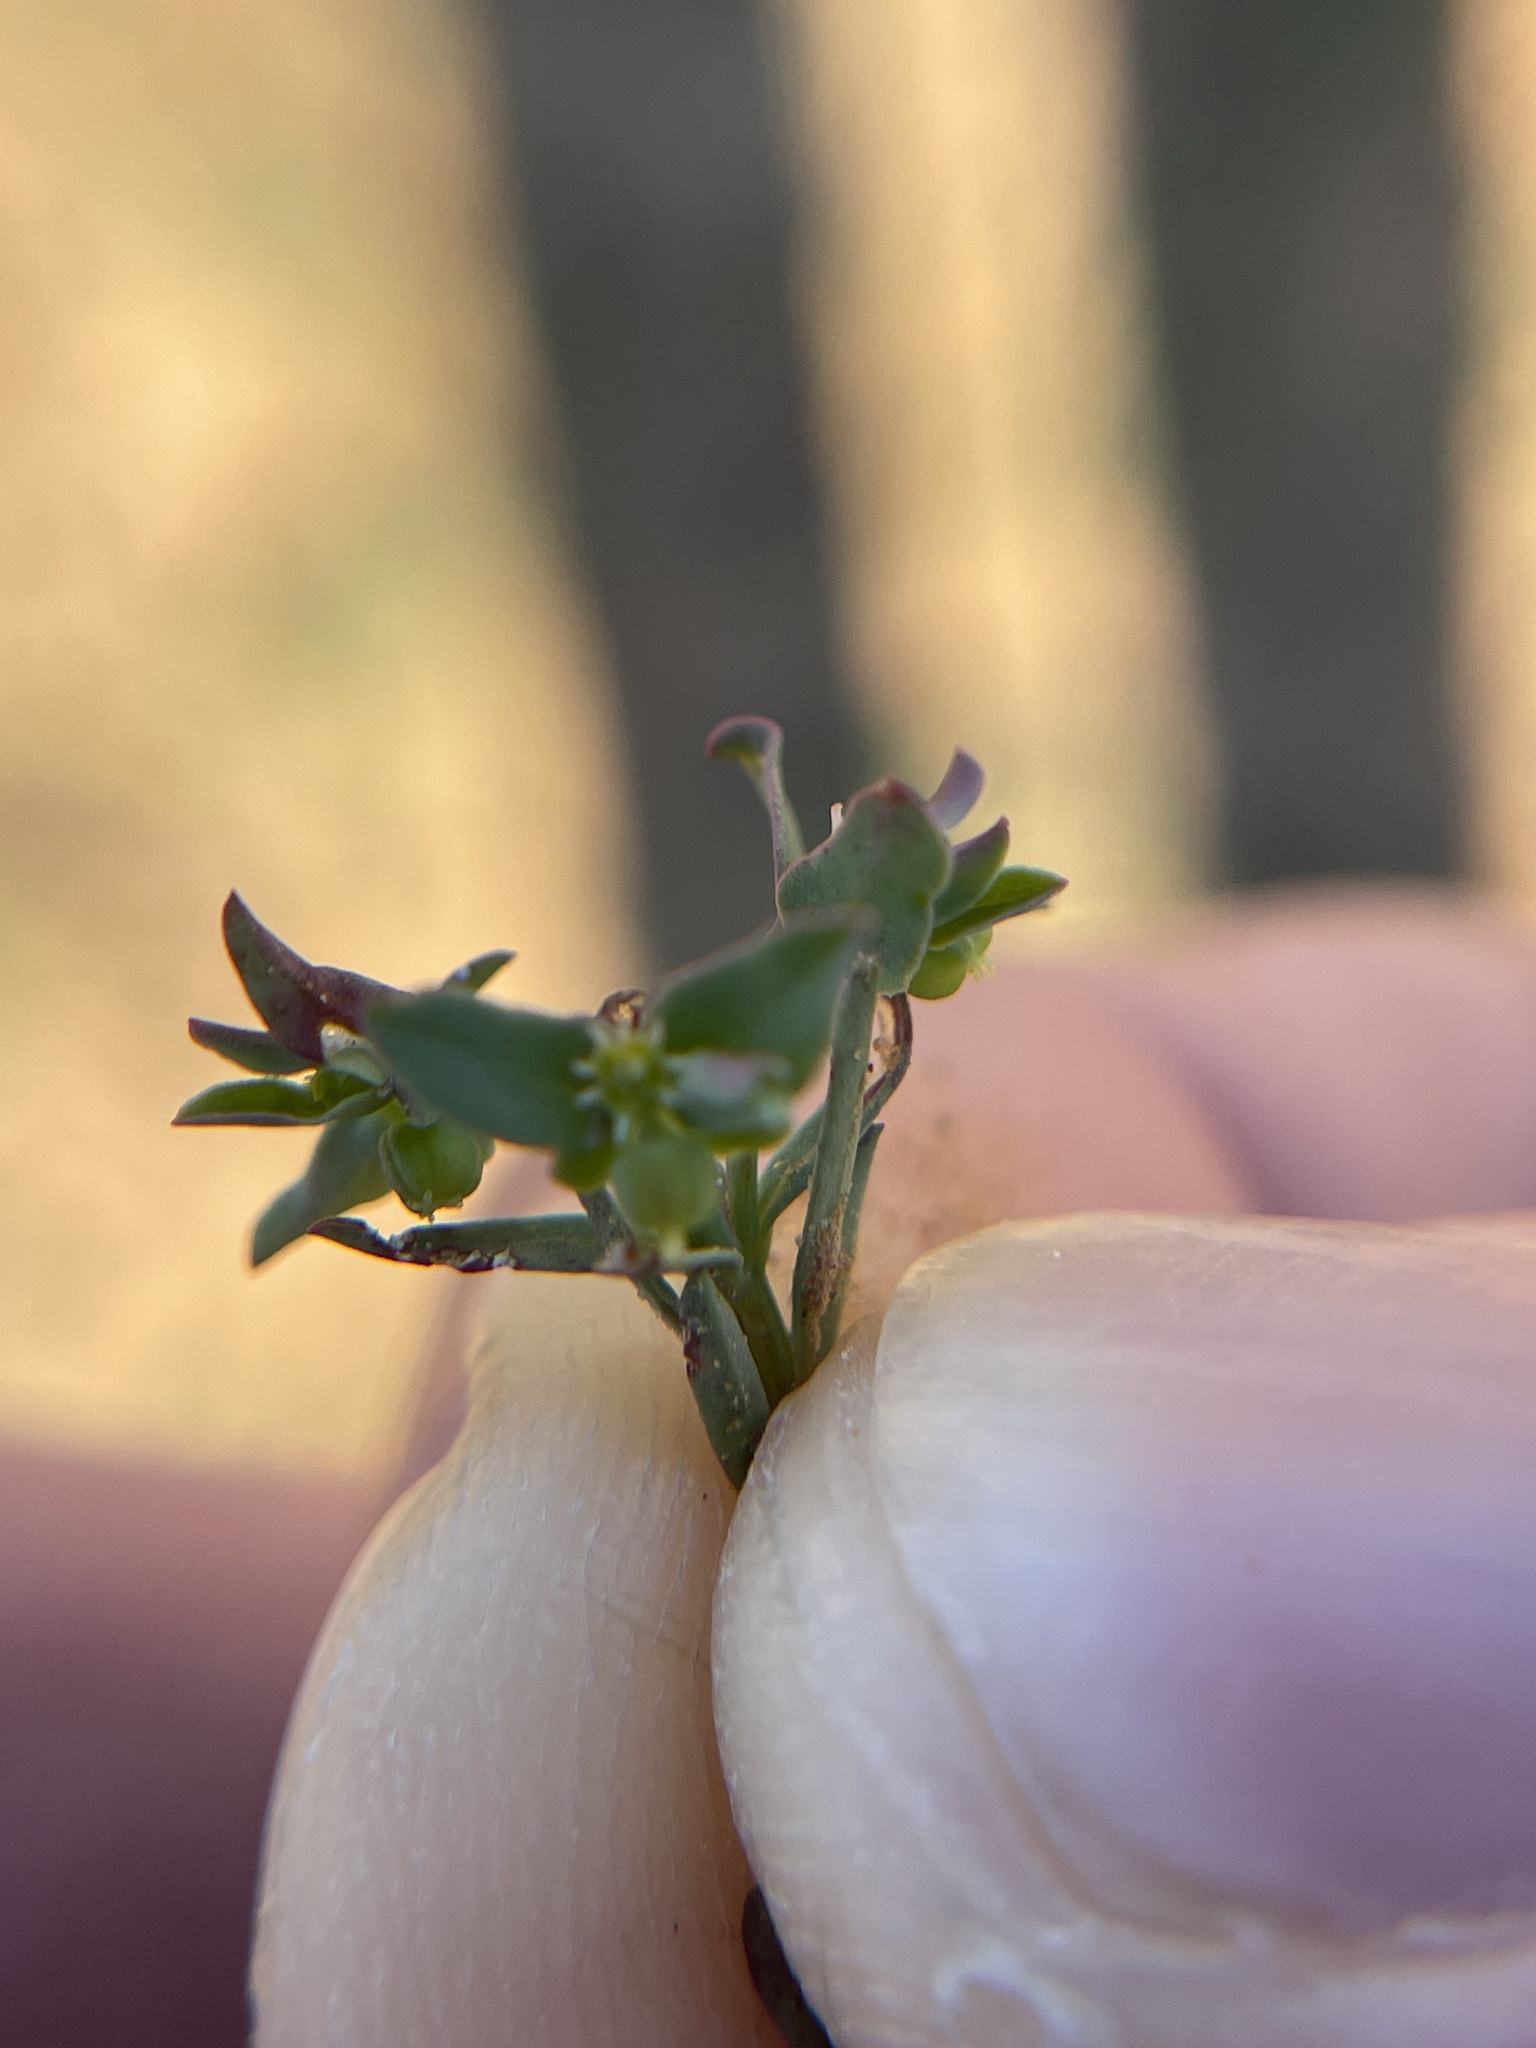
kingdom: Plantae
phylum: Tracheophyta
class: Magnoliopsida
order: Malpighiales
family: Euphorbiaceae
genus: Euphorbia
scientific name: Euphorbia peplidion
